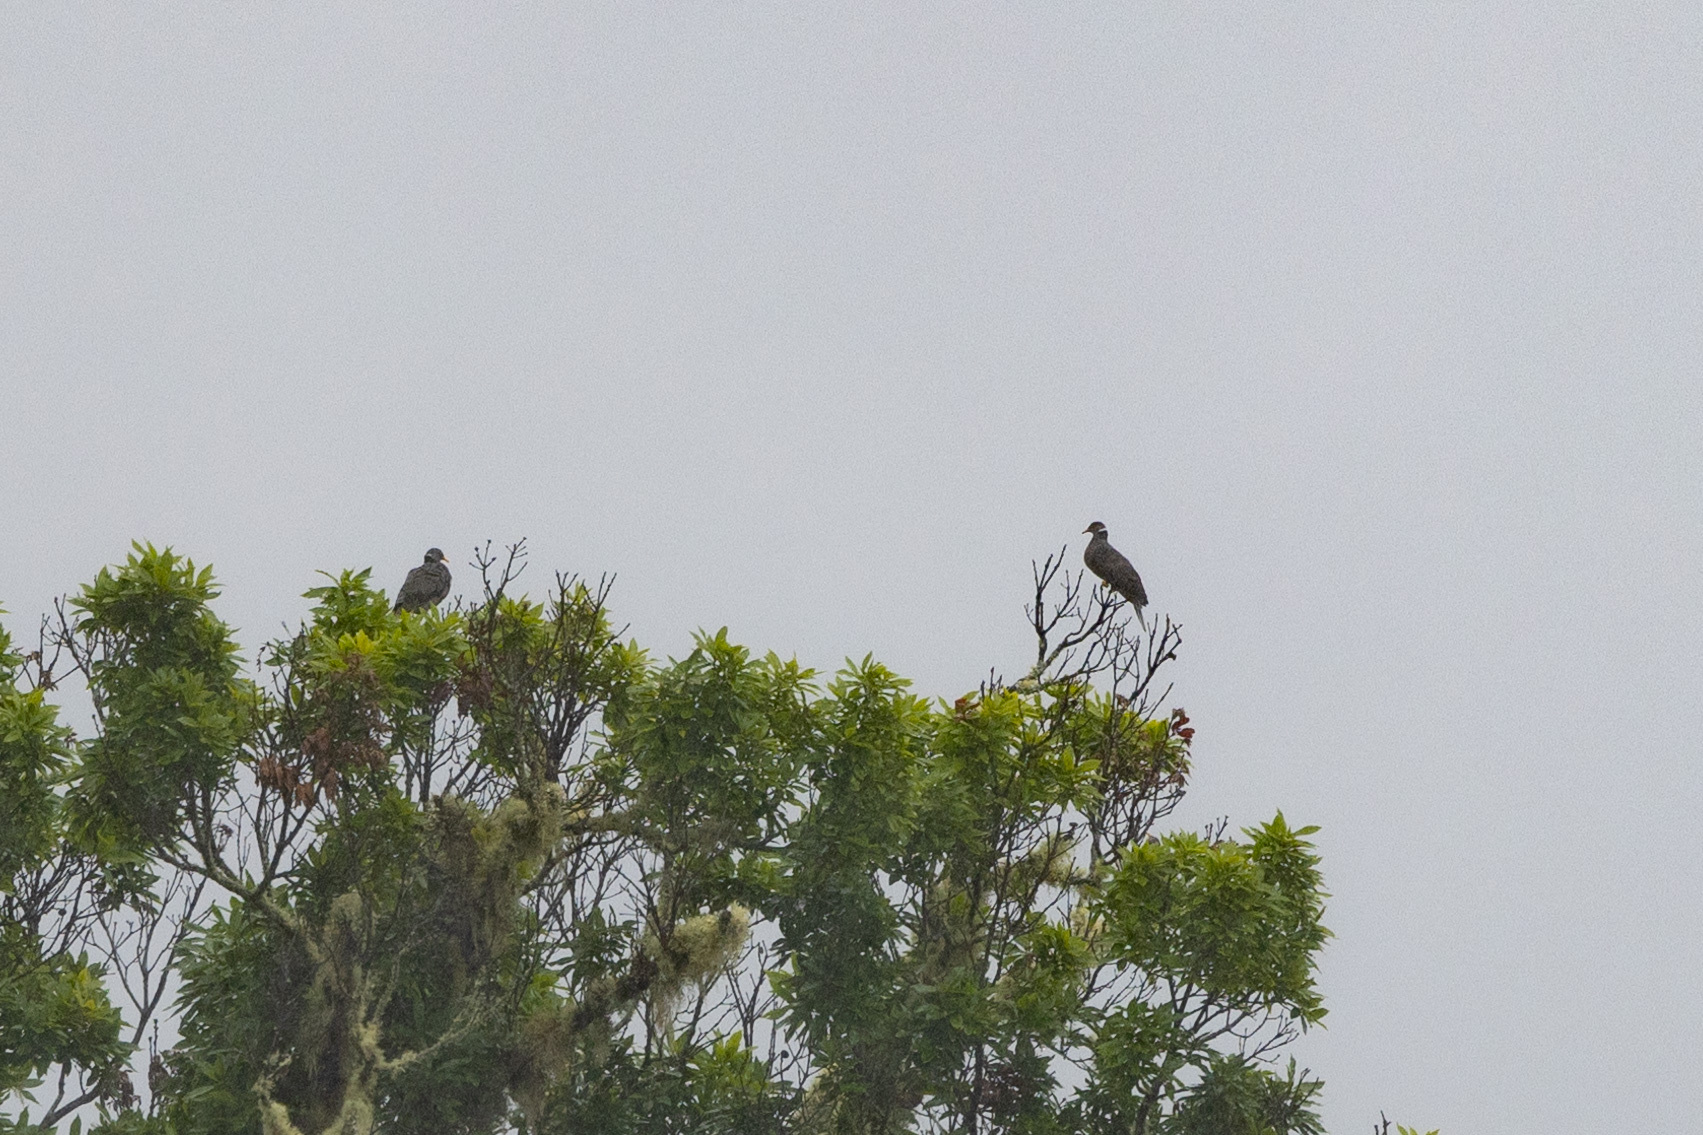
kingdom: Animalia
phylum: Chordata
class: Aves
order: Columbiformes
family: Columbidae
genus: Patagioenas
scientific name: Patagioenas fasciata
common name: Band-tailed pigeon
